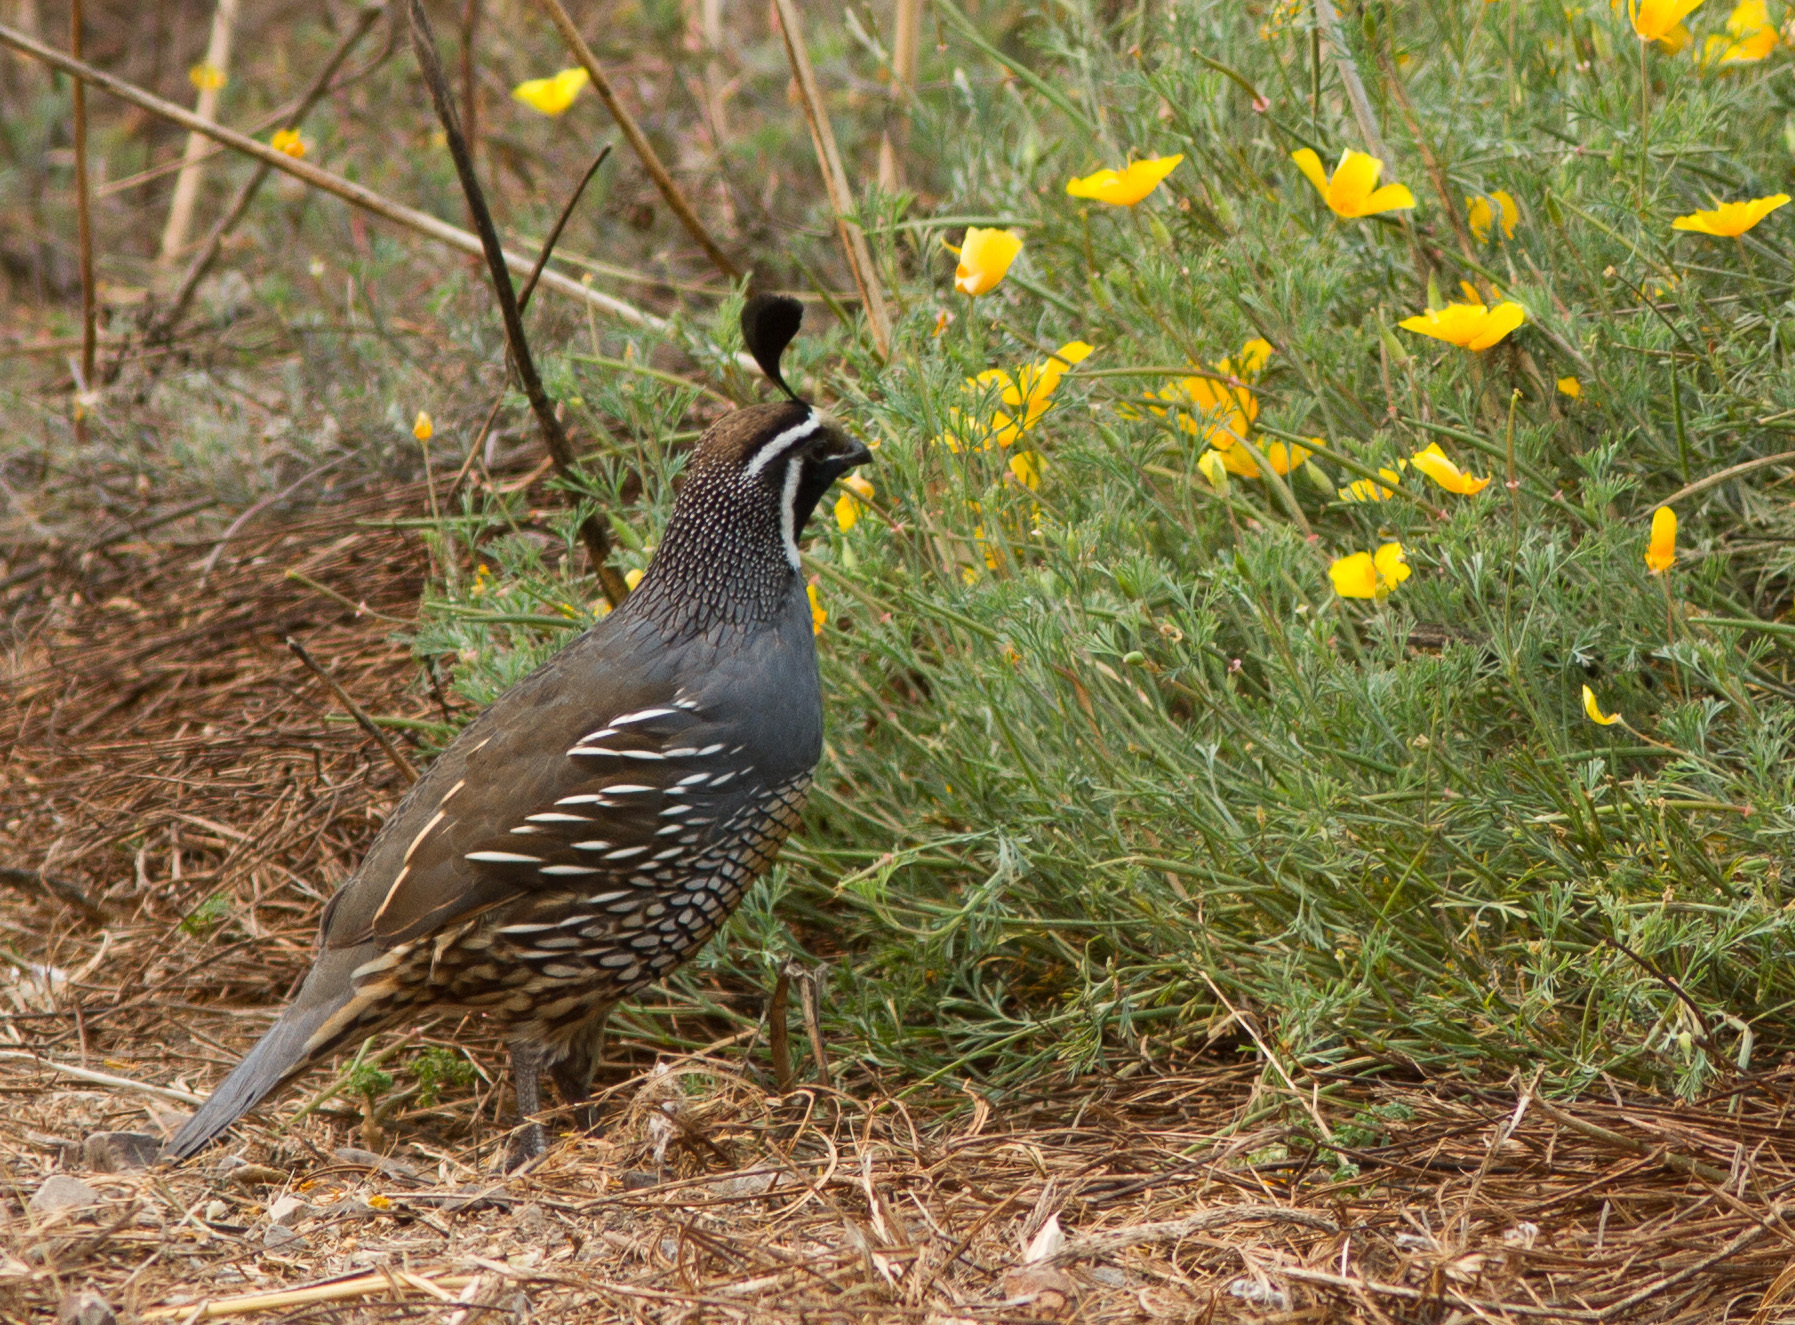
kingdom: Animalia
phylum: Chordata
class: Aves
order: Galliformes
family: Odontophoridae
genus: Callipepla
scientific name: Callipepla californica
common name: California quail
